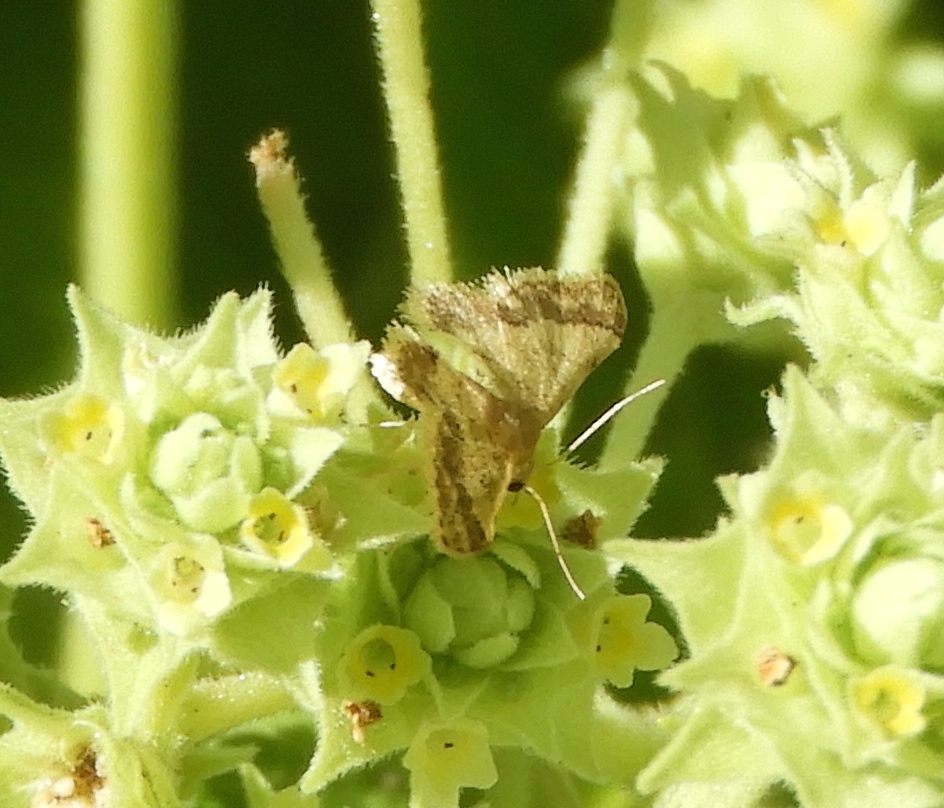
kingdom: Animalia
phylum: Arthropoda
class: Insecta
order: Lepidoptera
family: Geometridae
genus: Idaea
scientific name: Idaea
